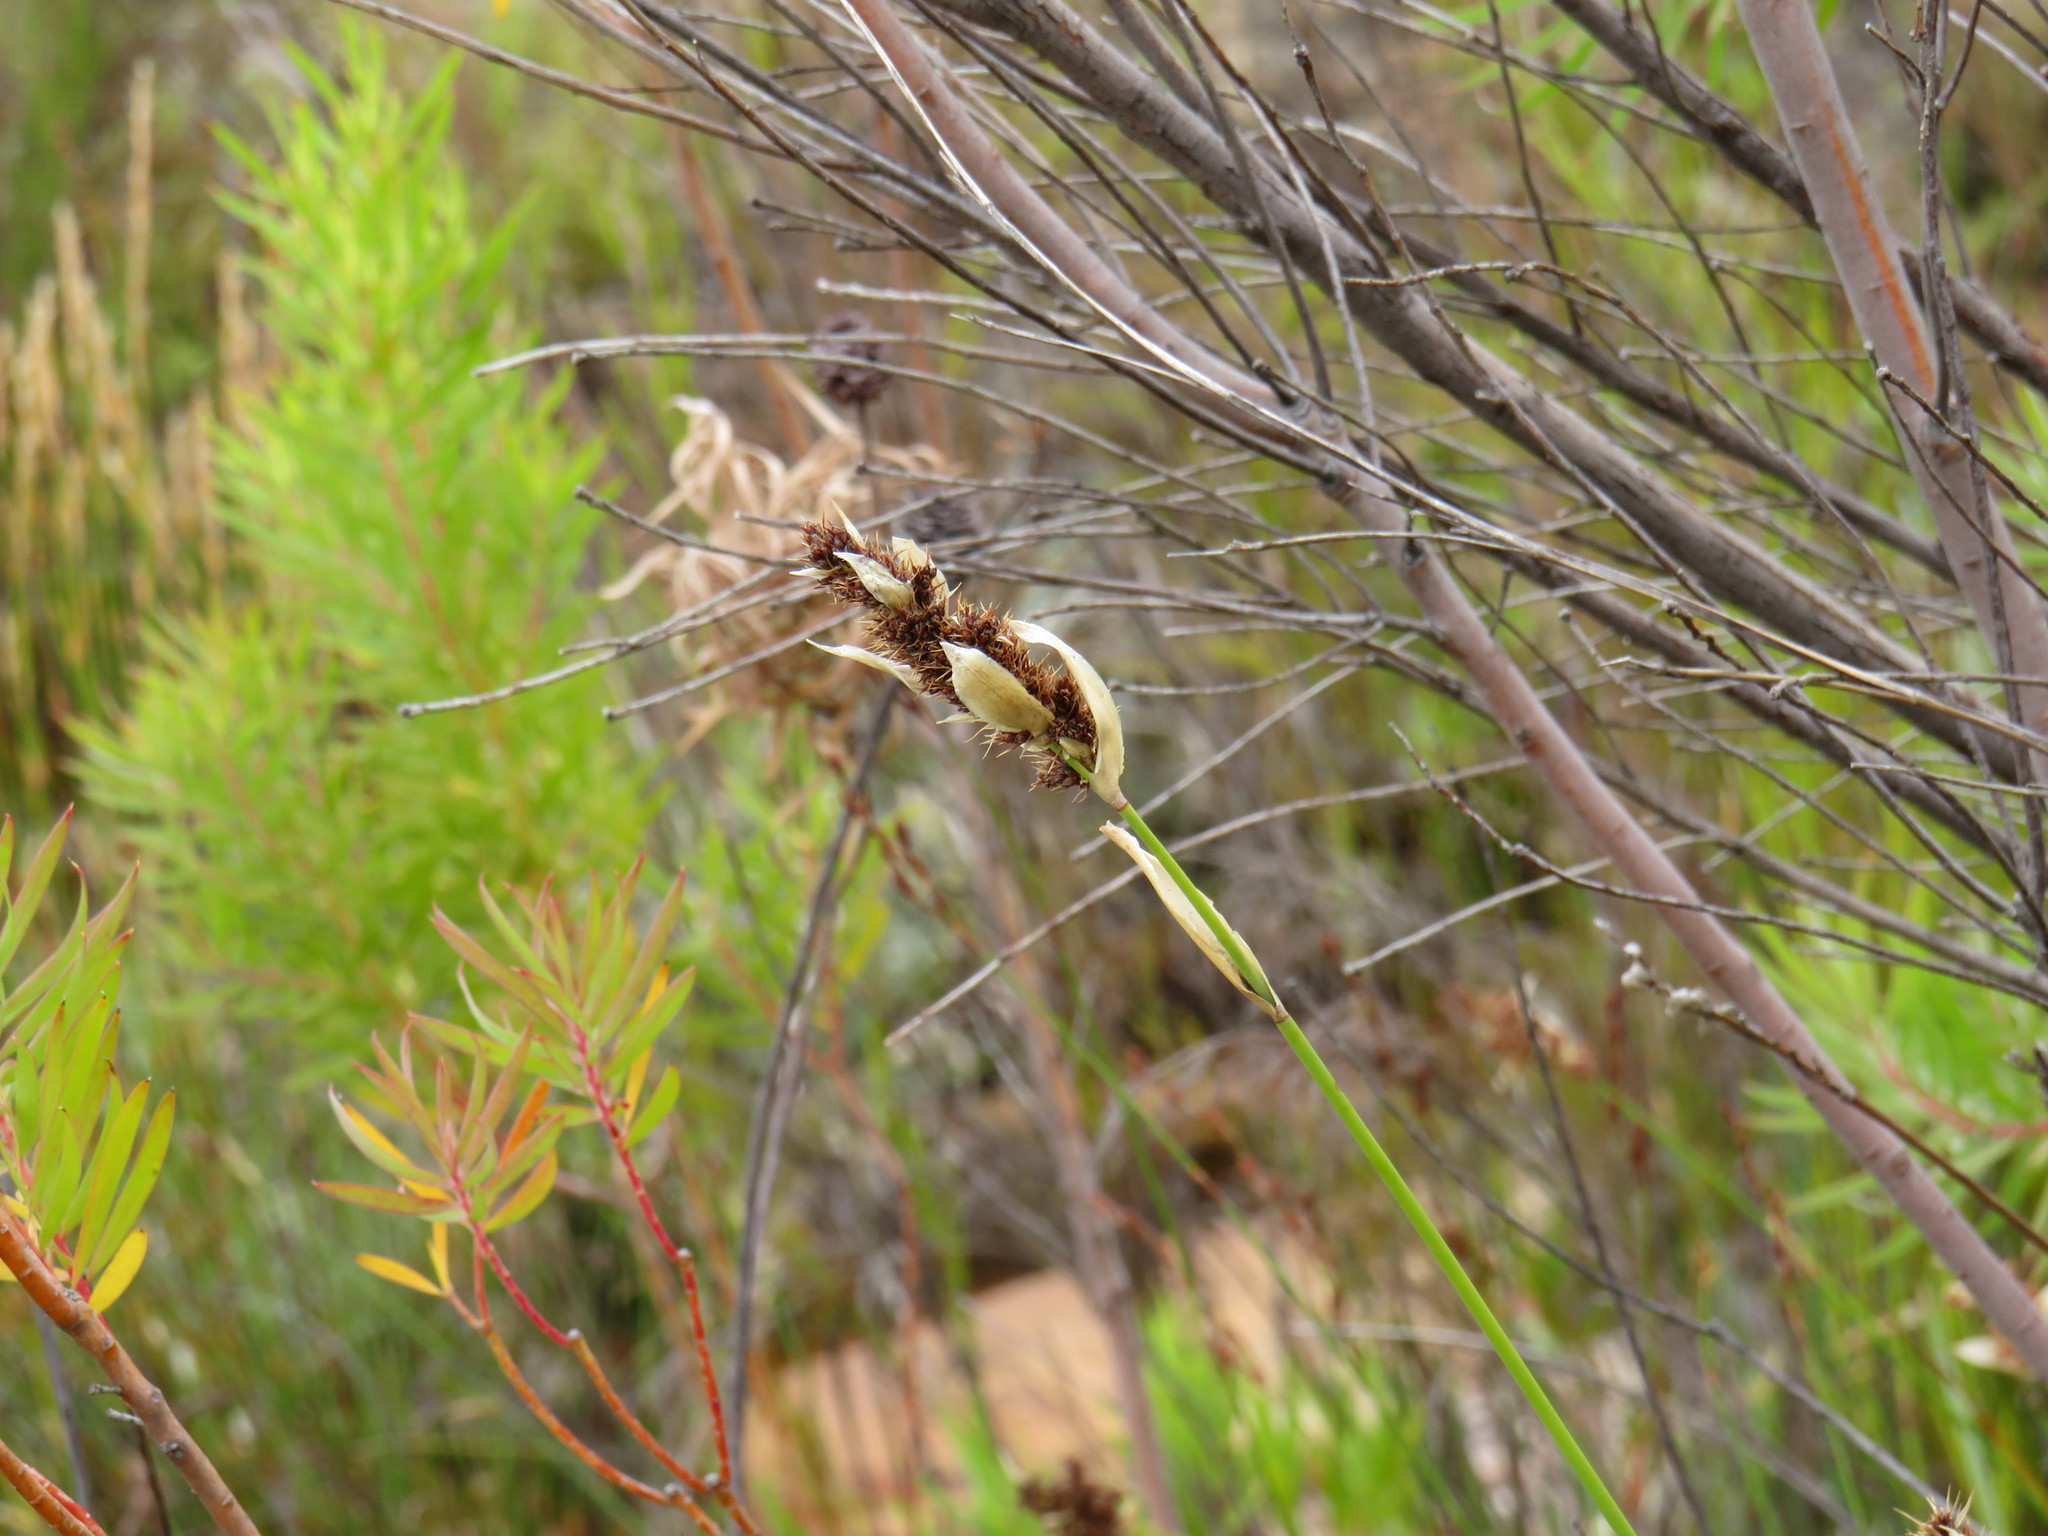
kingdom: Plantae
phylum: Tracheophyta
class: Liliopsida
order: Poales
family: Restionaceae
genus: Elegia
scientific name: Elegia asperiflora
